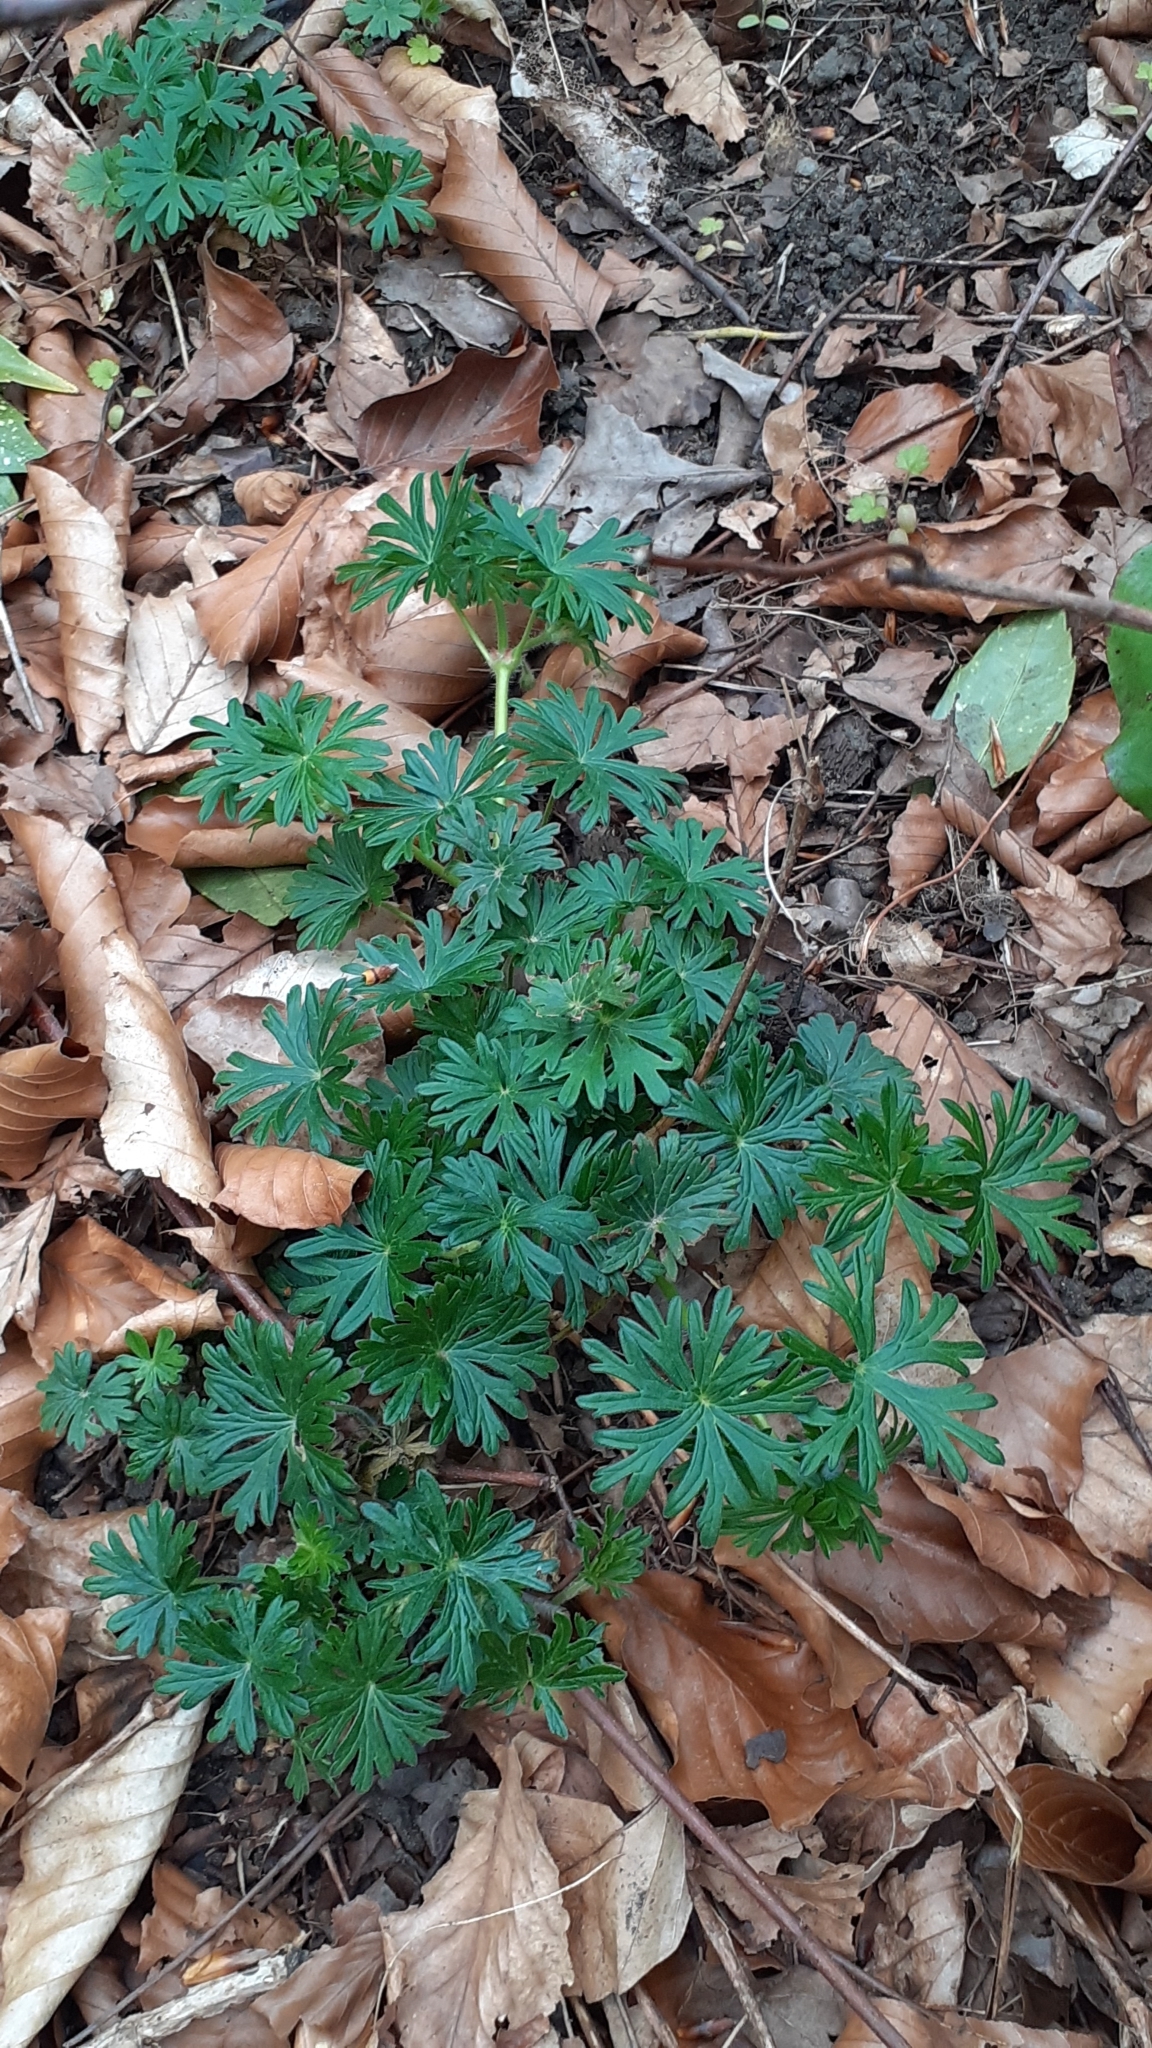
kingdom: Plantae
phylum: Tracheophyta
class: Magnoliopsida
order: Geraniales
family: Geraniaceae
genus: Geranium
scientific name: Geranium sanguineum
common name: Bloody crane's-bill
